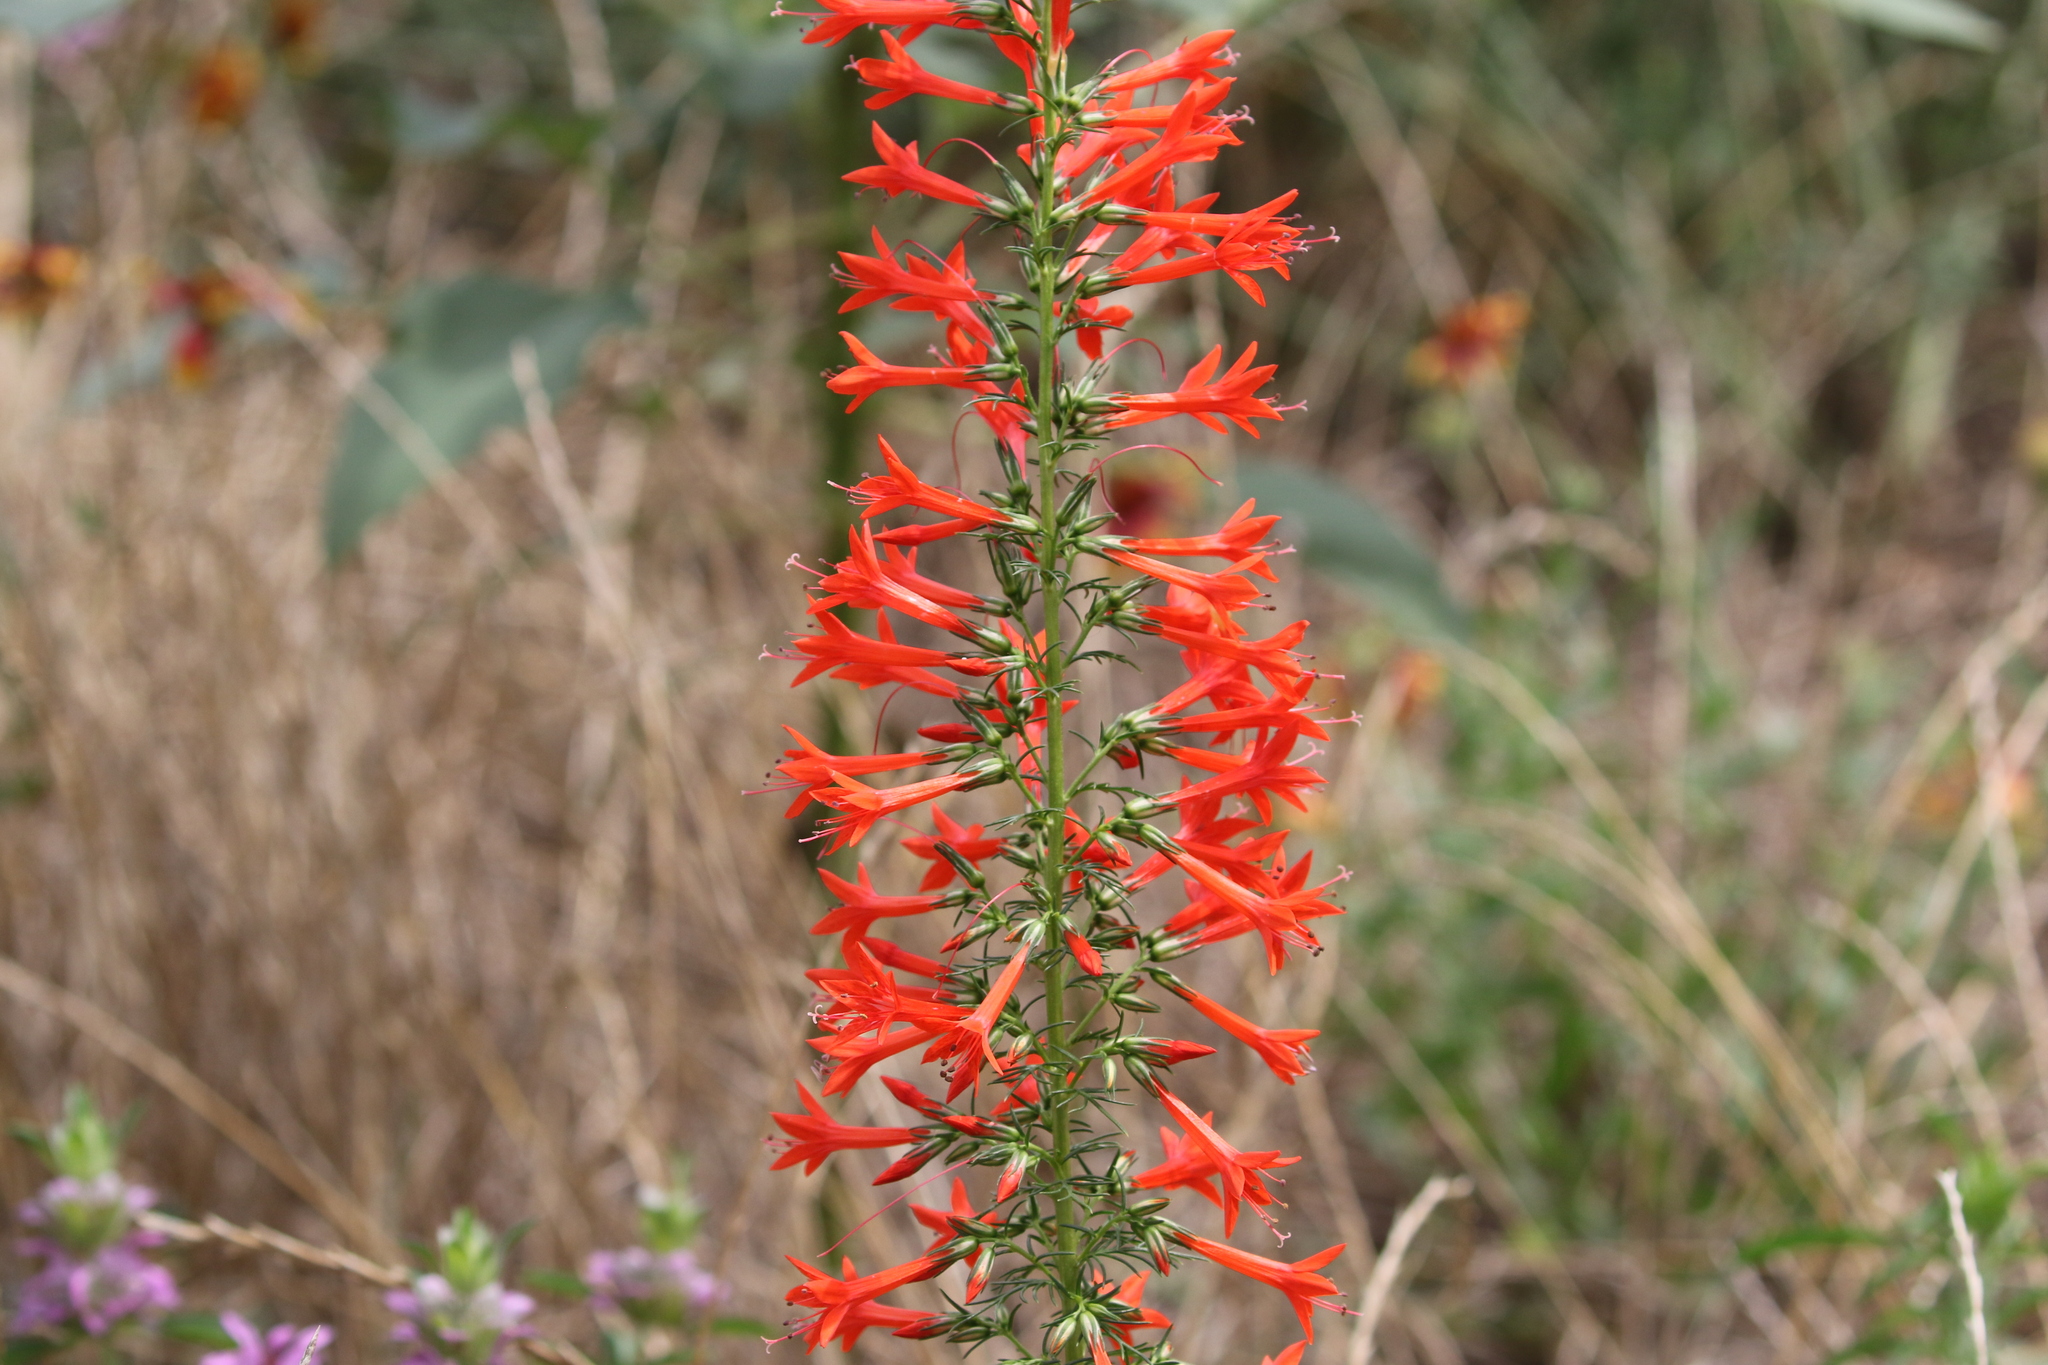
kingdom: Plantae
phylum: Tracheophyta
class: Magnoliopsida
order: Ericales
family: Polemoniaceae
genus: Ipomopsis
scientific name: Ipomopsis rubra
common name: Skyrocket
